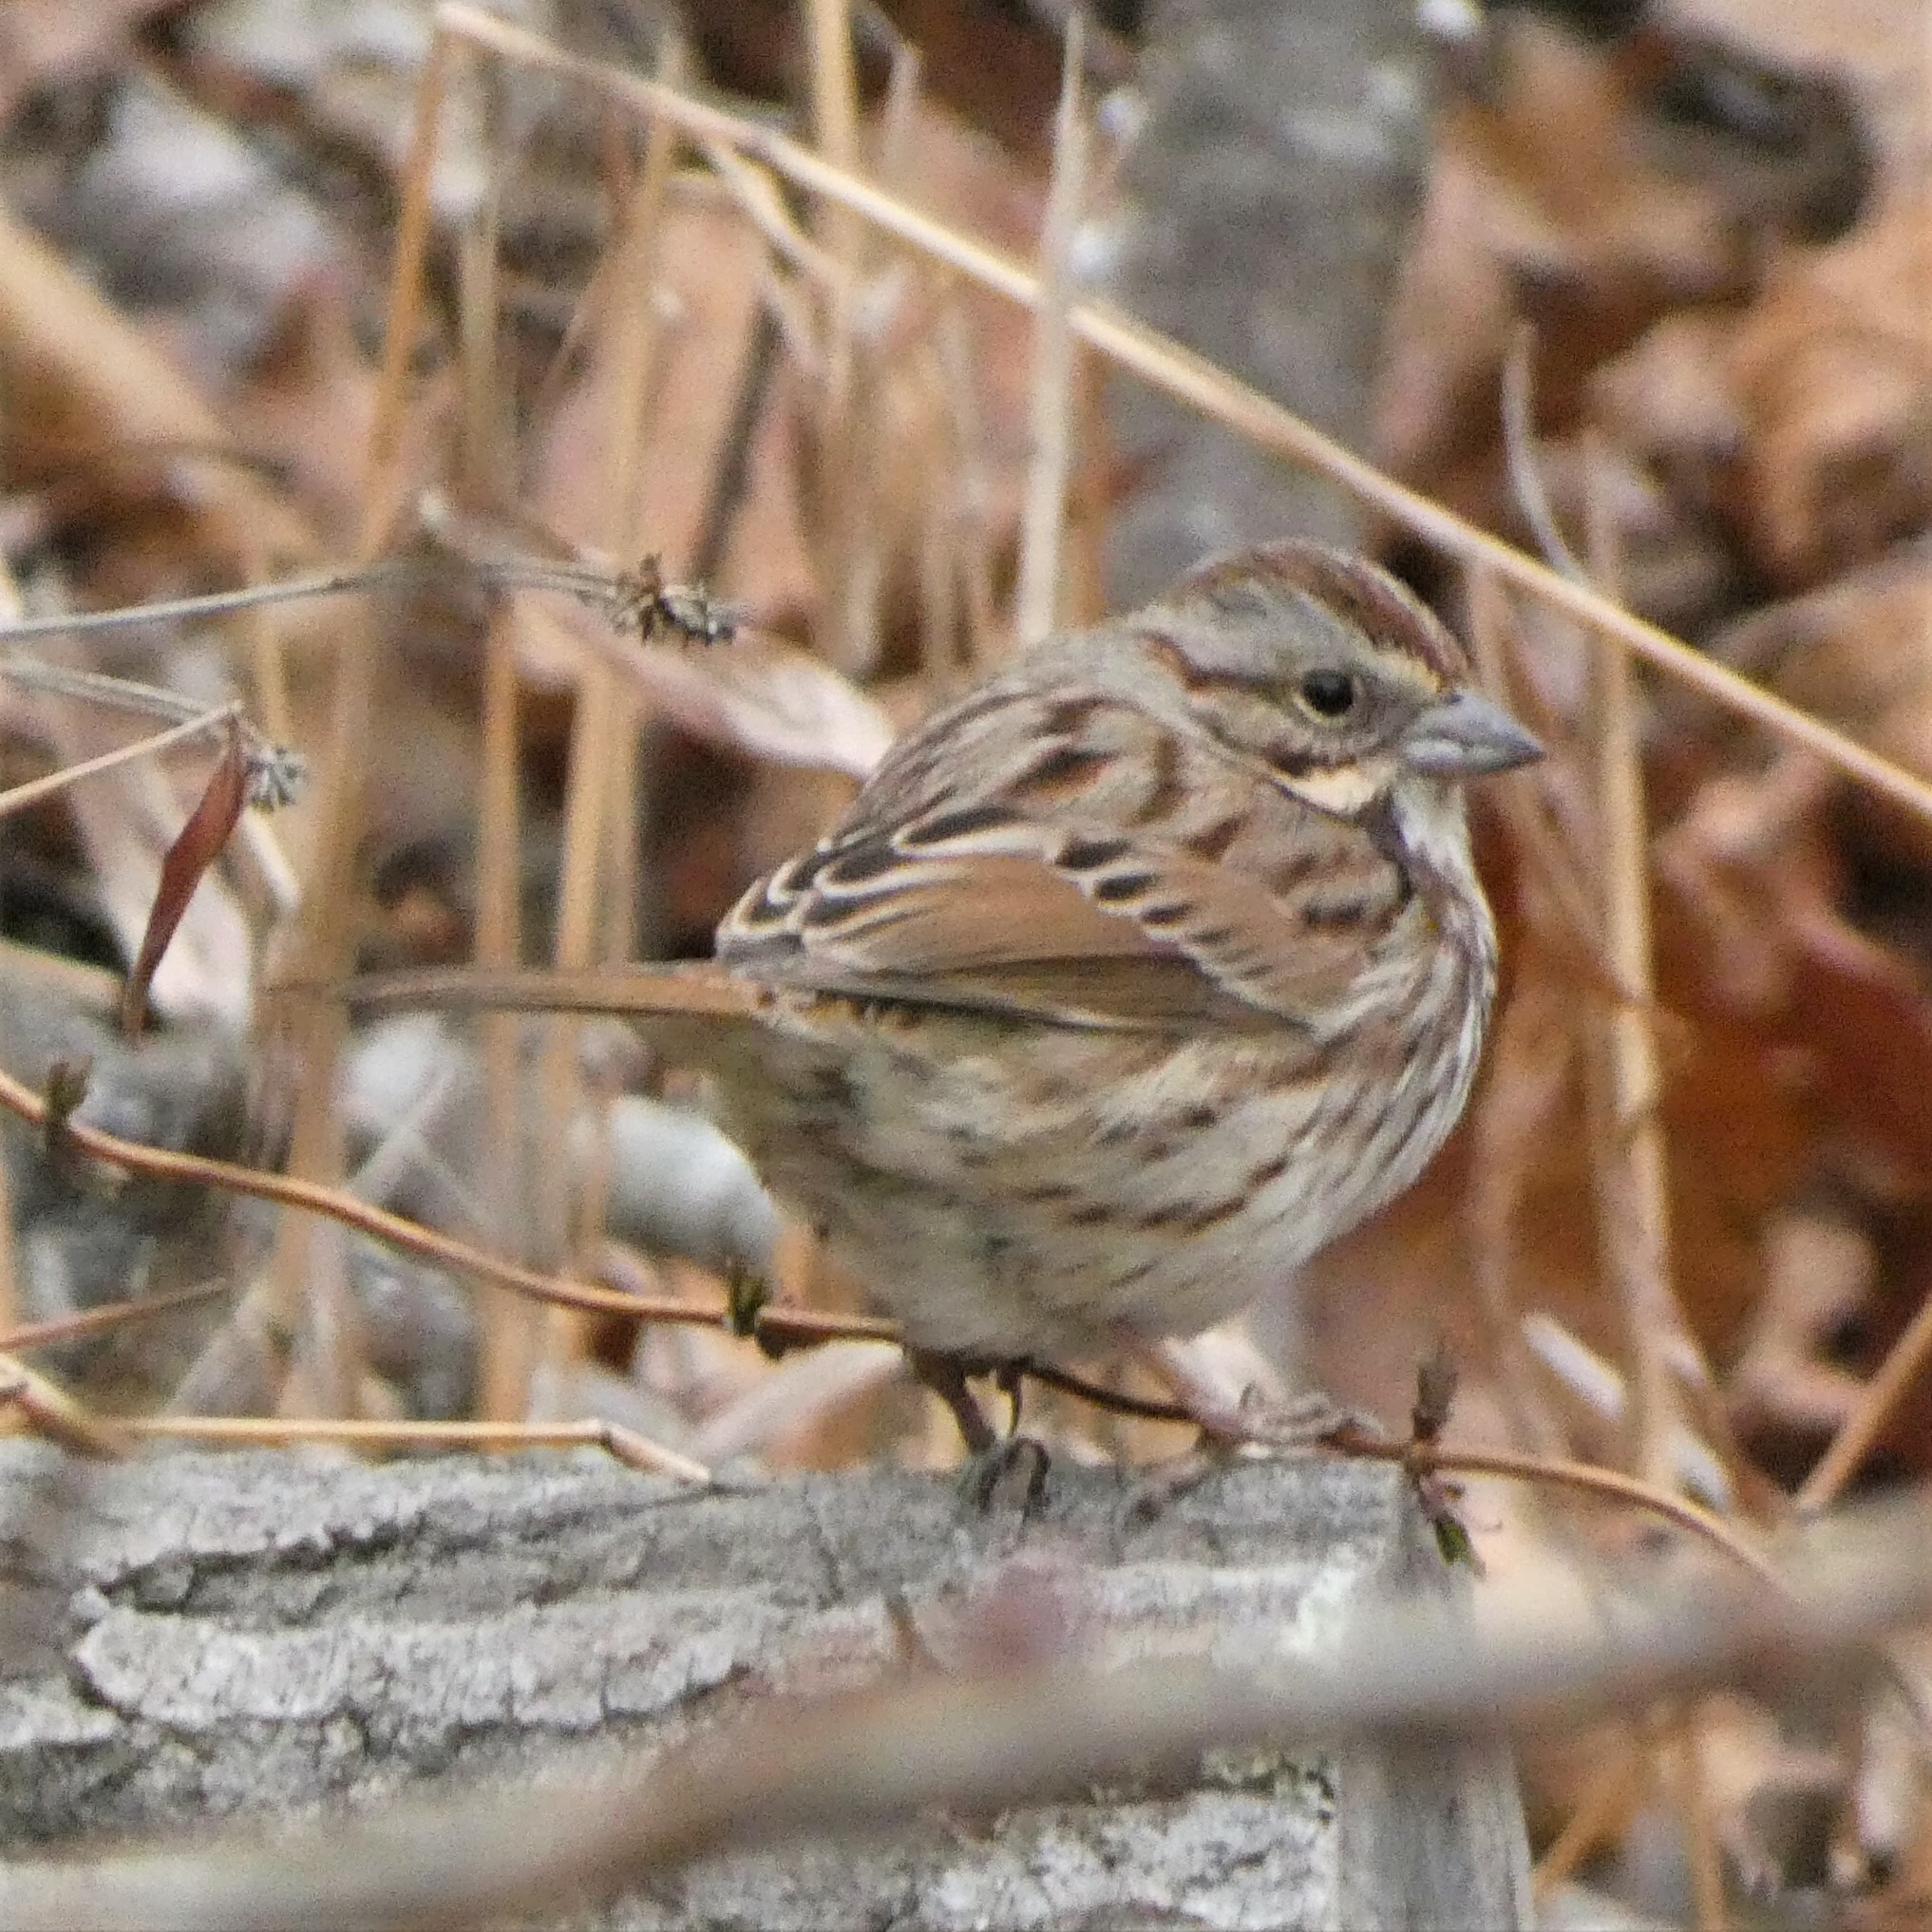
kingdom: Animalia
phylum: Chordata
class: Aves
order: Passeriformes
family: Passerellidae
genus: Melospiza
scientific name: Melospiza melodia
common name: Song sparrow
